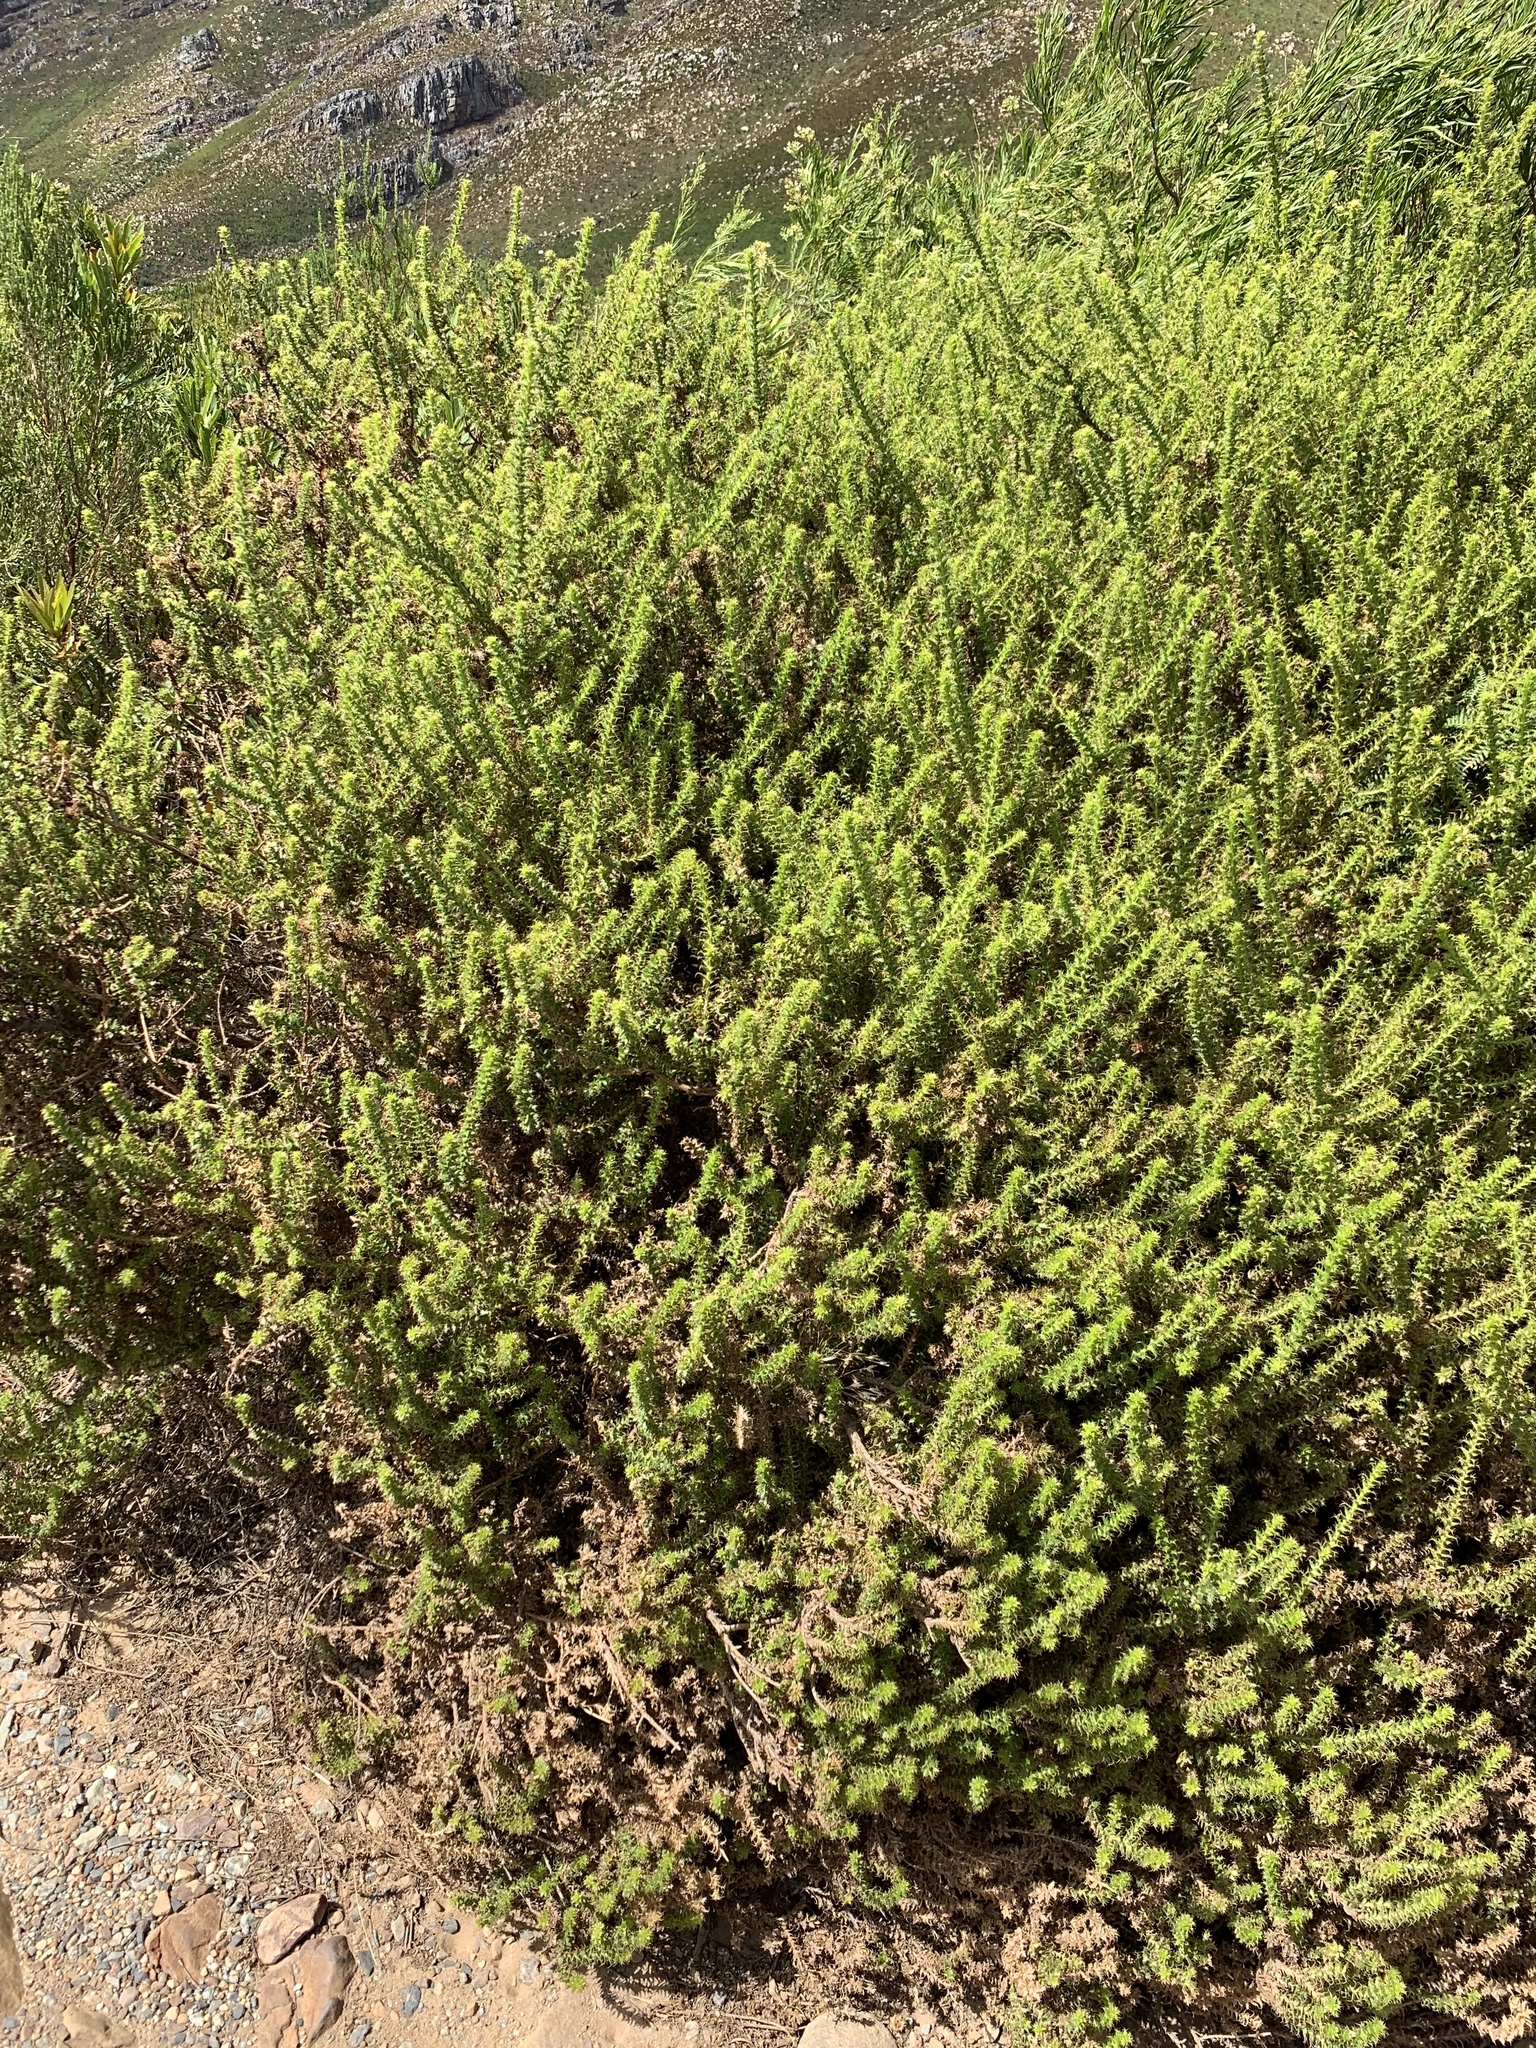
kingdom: Plantae
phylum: Tracheophyta
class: Magnoliopsida
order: Asterales
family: Asteraceae
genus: Cullumia
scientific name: Cullumia setosa
